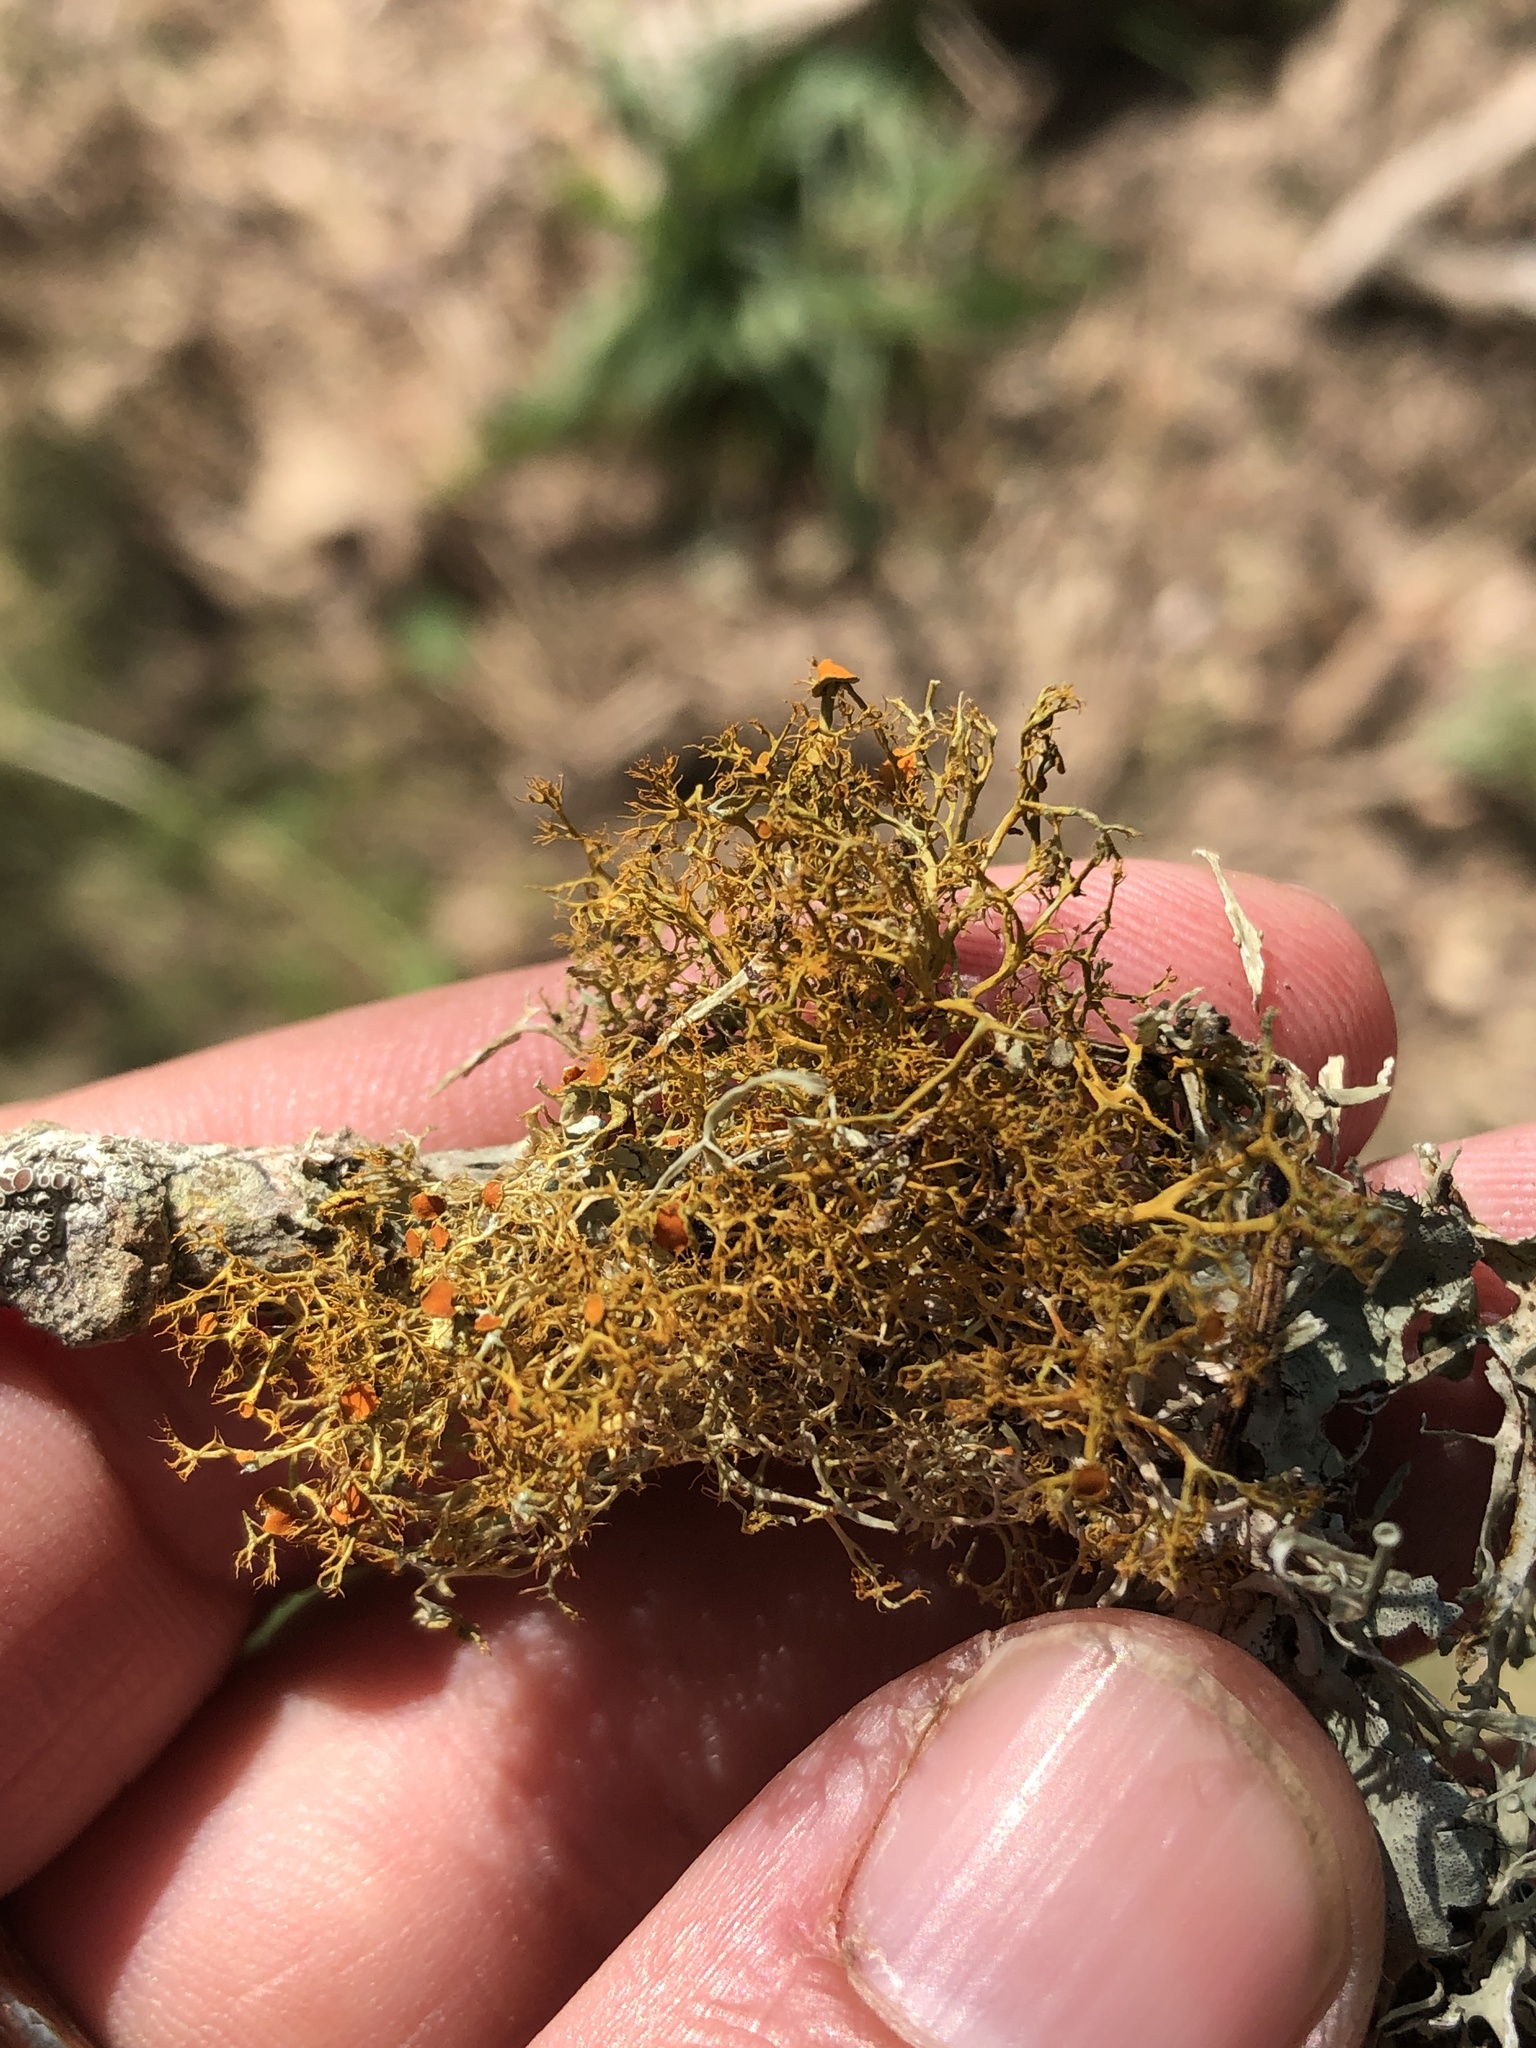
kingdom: Fungi
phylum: Ascomycota
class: Lecanoromycetes
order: Teloschistales
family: Teloschistaceae
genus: Teloschistes
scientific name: Teloschistes exilis
